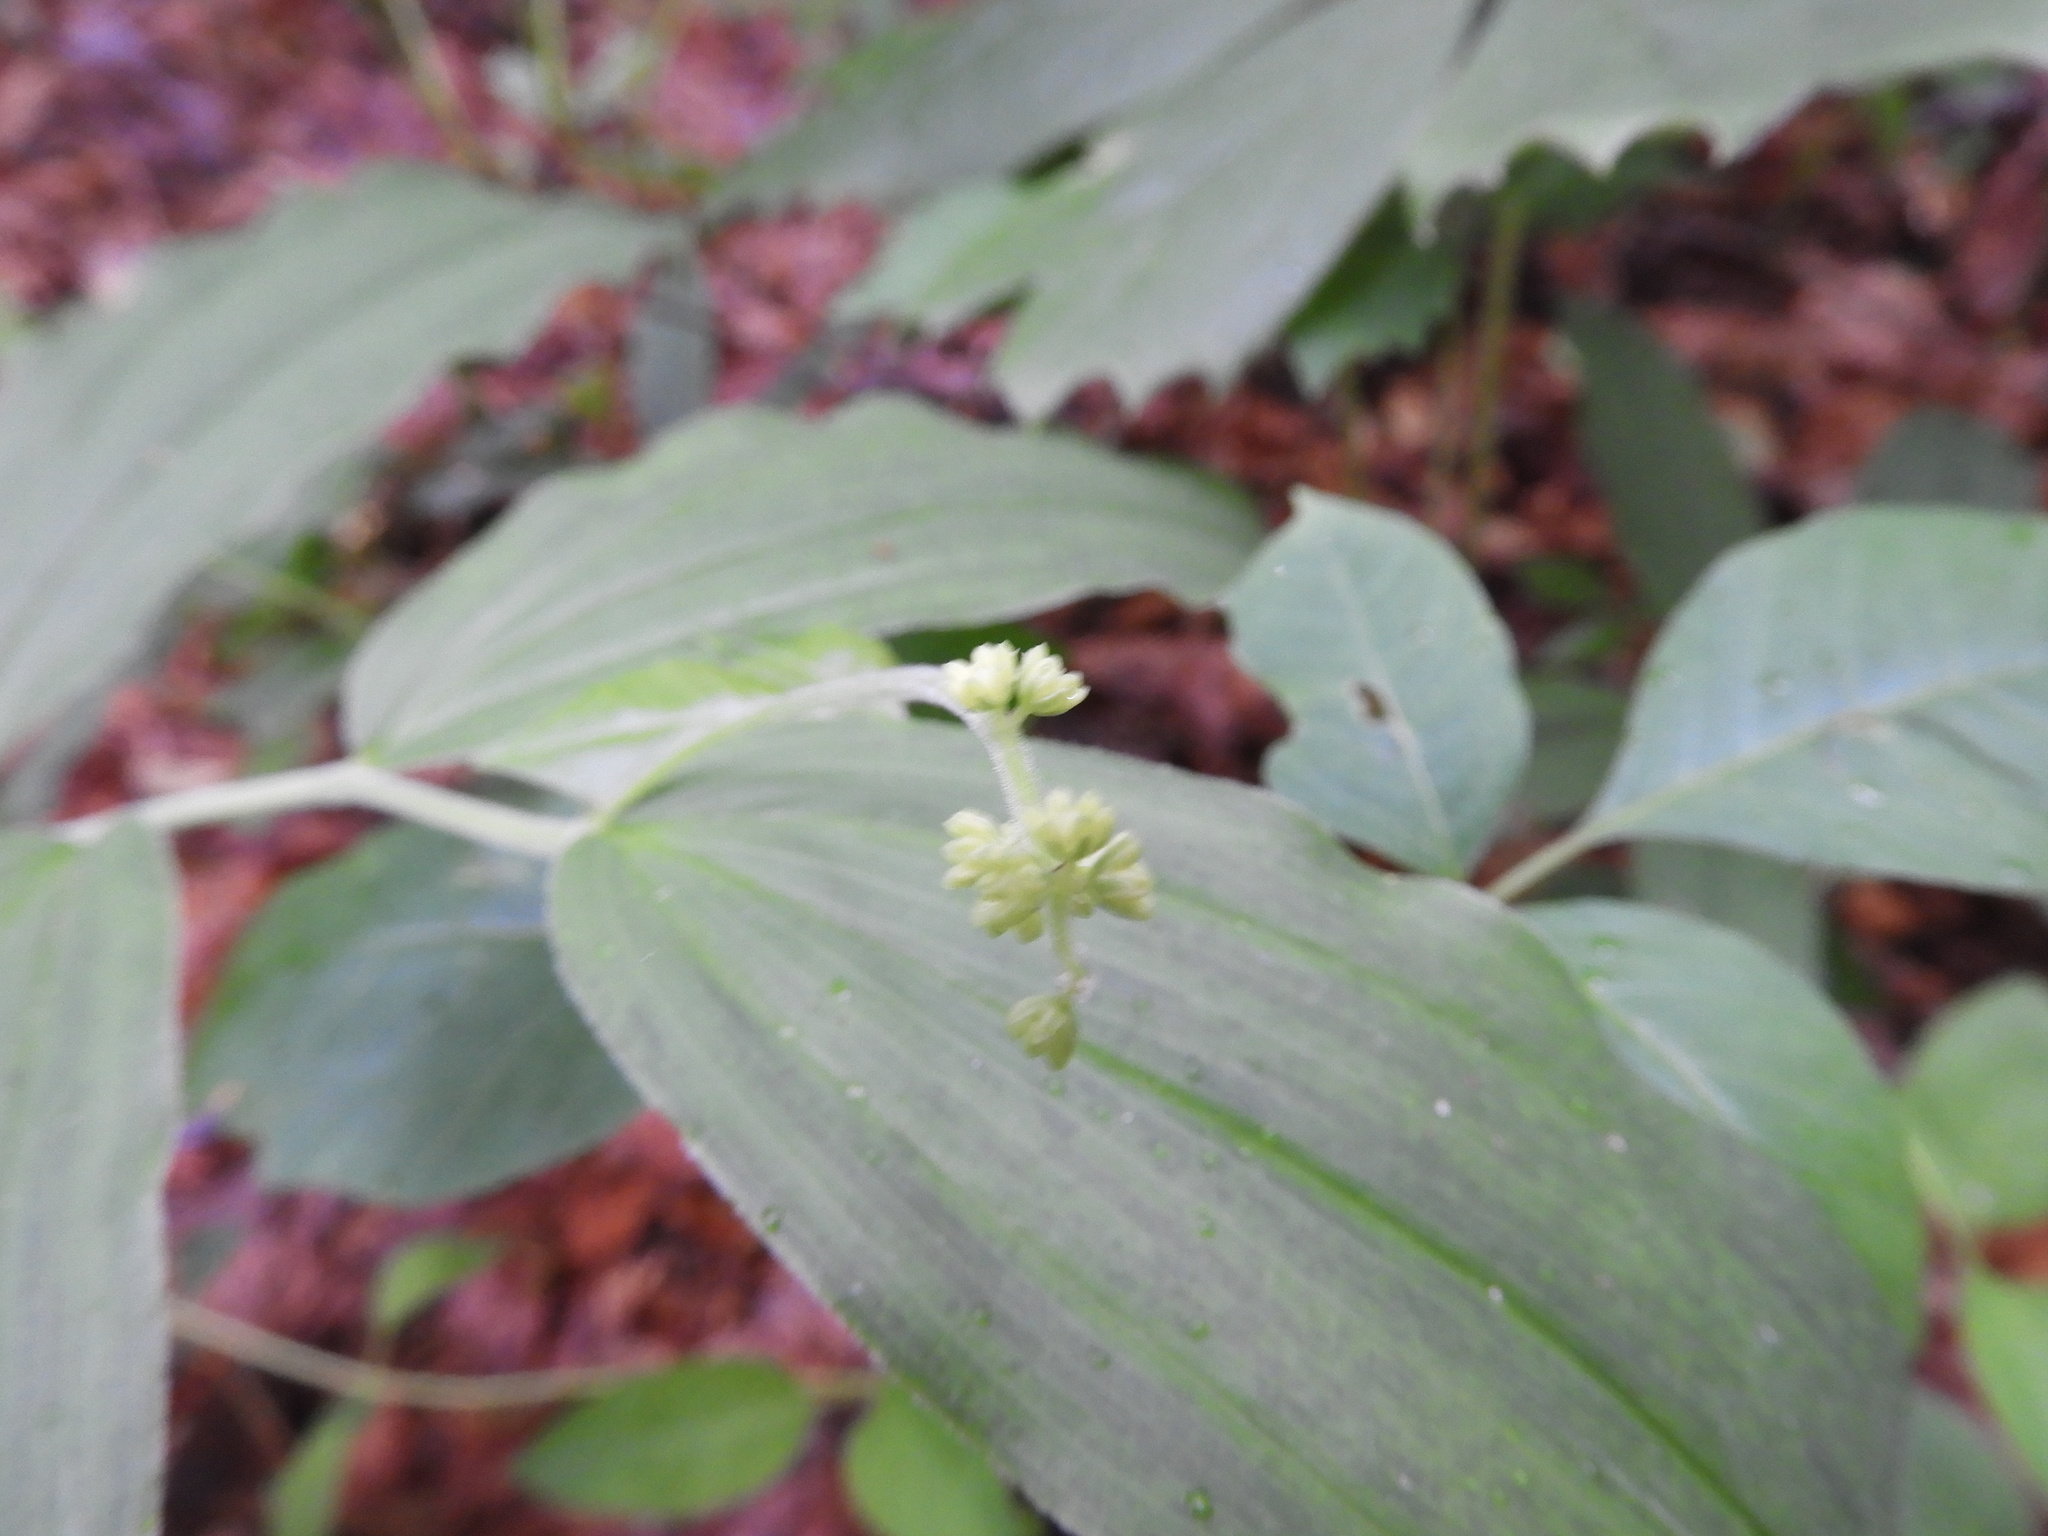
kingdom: Plantae
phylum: Tracheophyta
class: Liliopsida
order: Asparagales
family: Asparagaceae
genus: Maianthemum
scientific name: Maianthemum racemosum
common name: False spikenard
